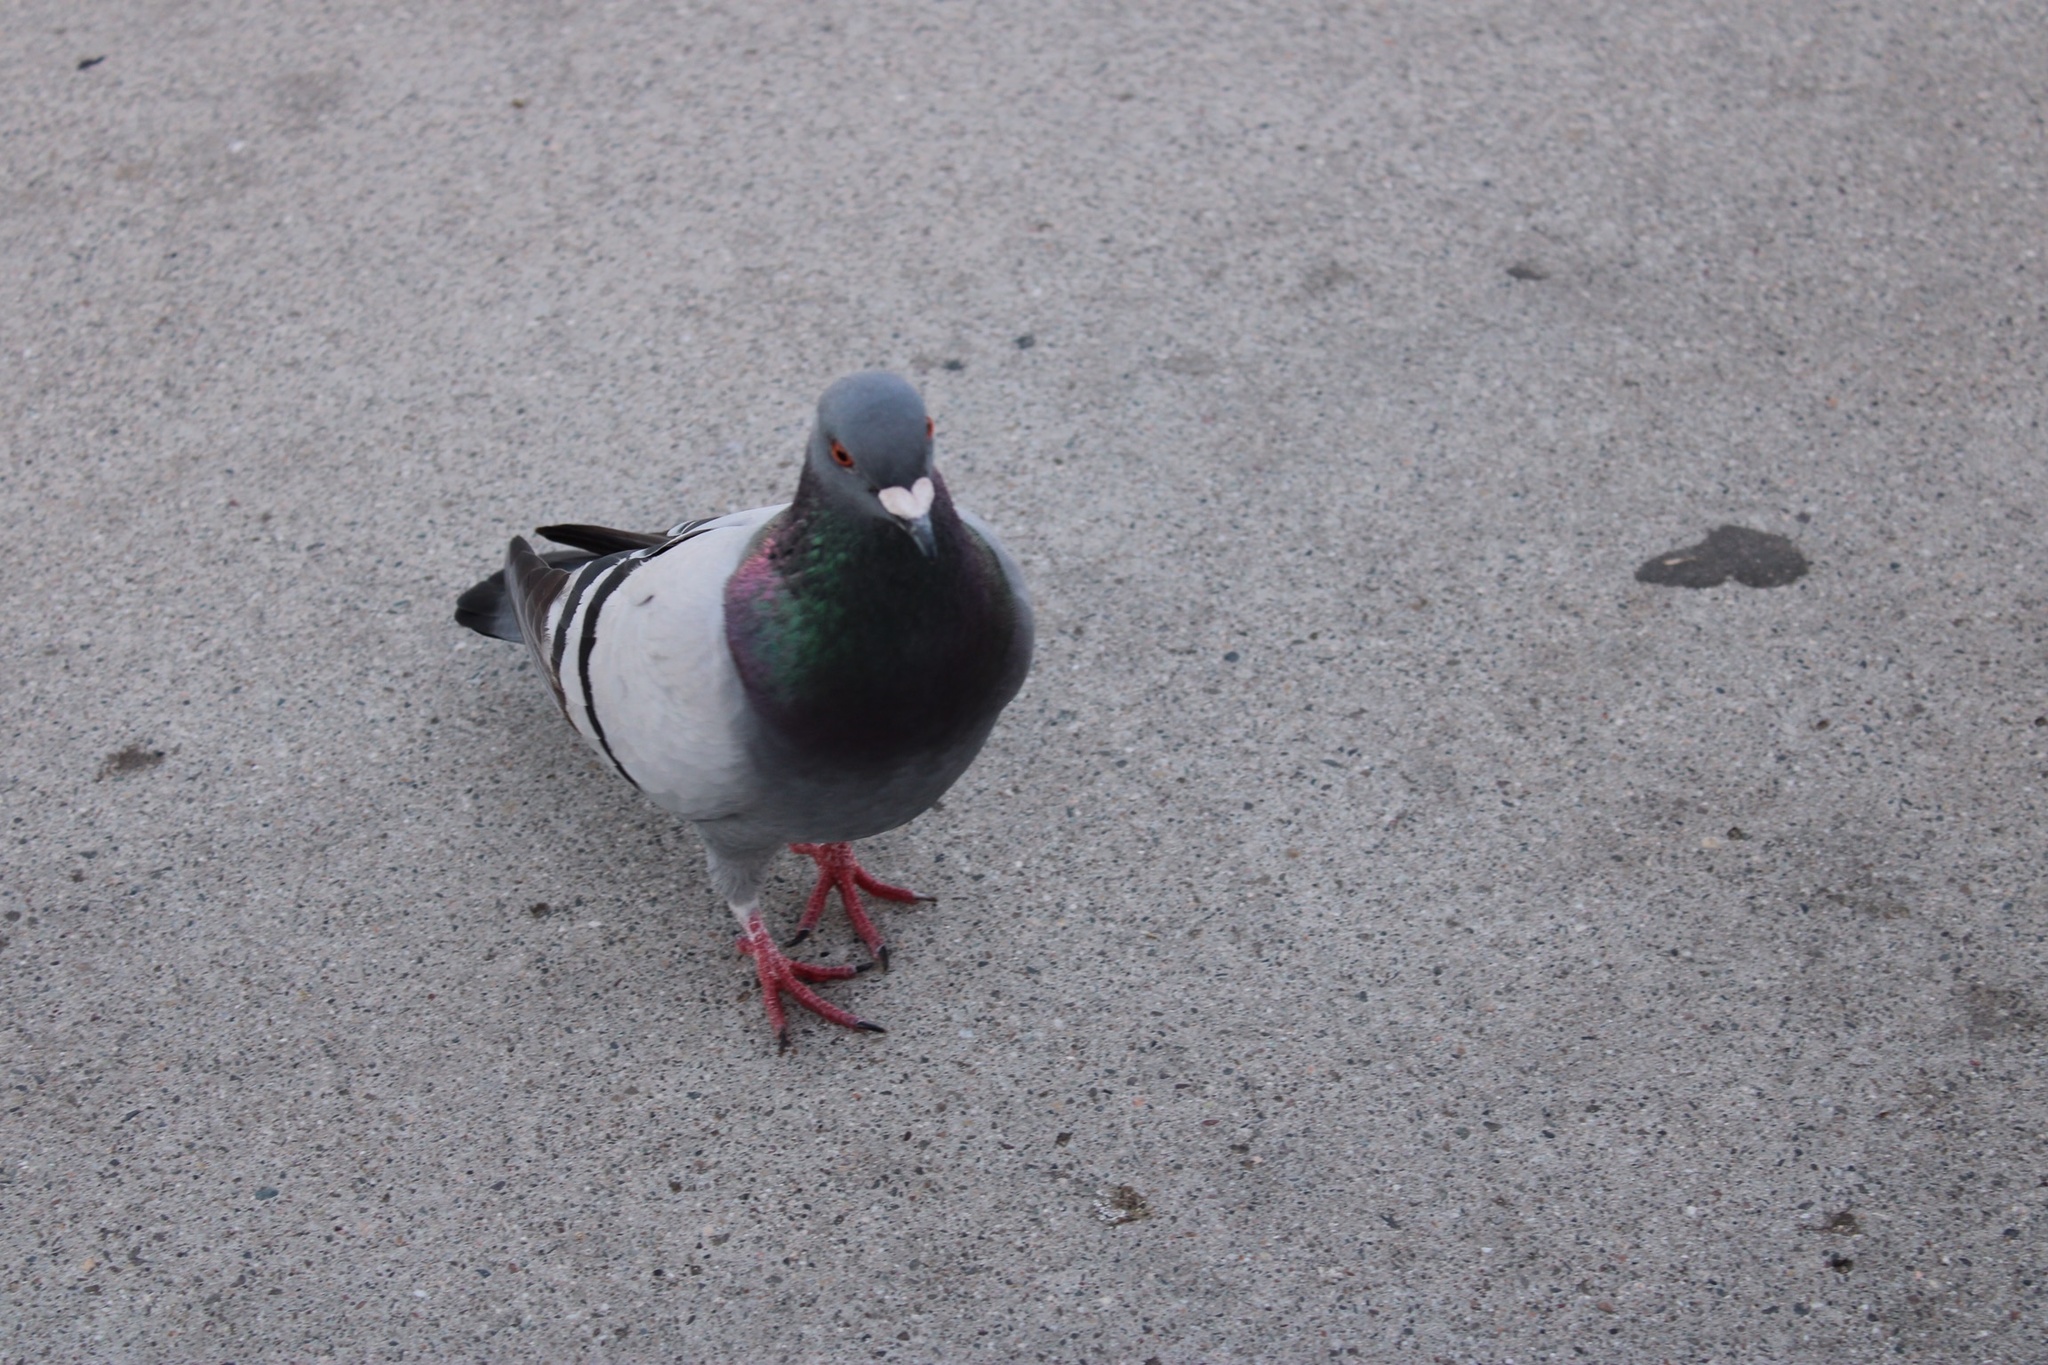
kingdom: Animalia
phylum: Chordata
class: Aves
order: Columbiformes
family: Columbidae
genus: Columba
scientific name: Columba livia
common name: Rock pigeon
